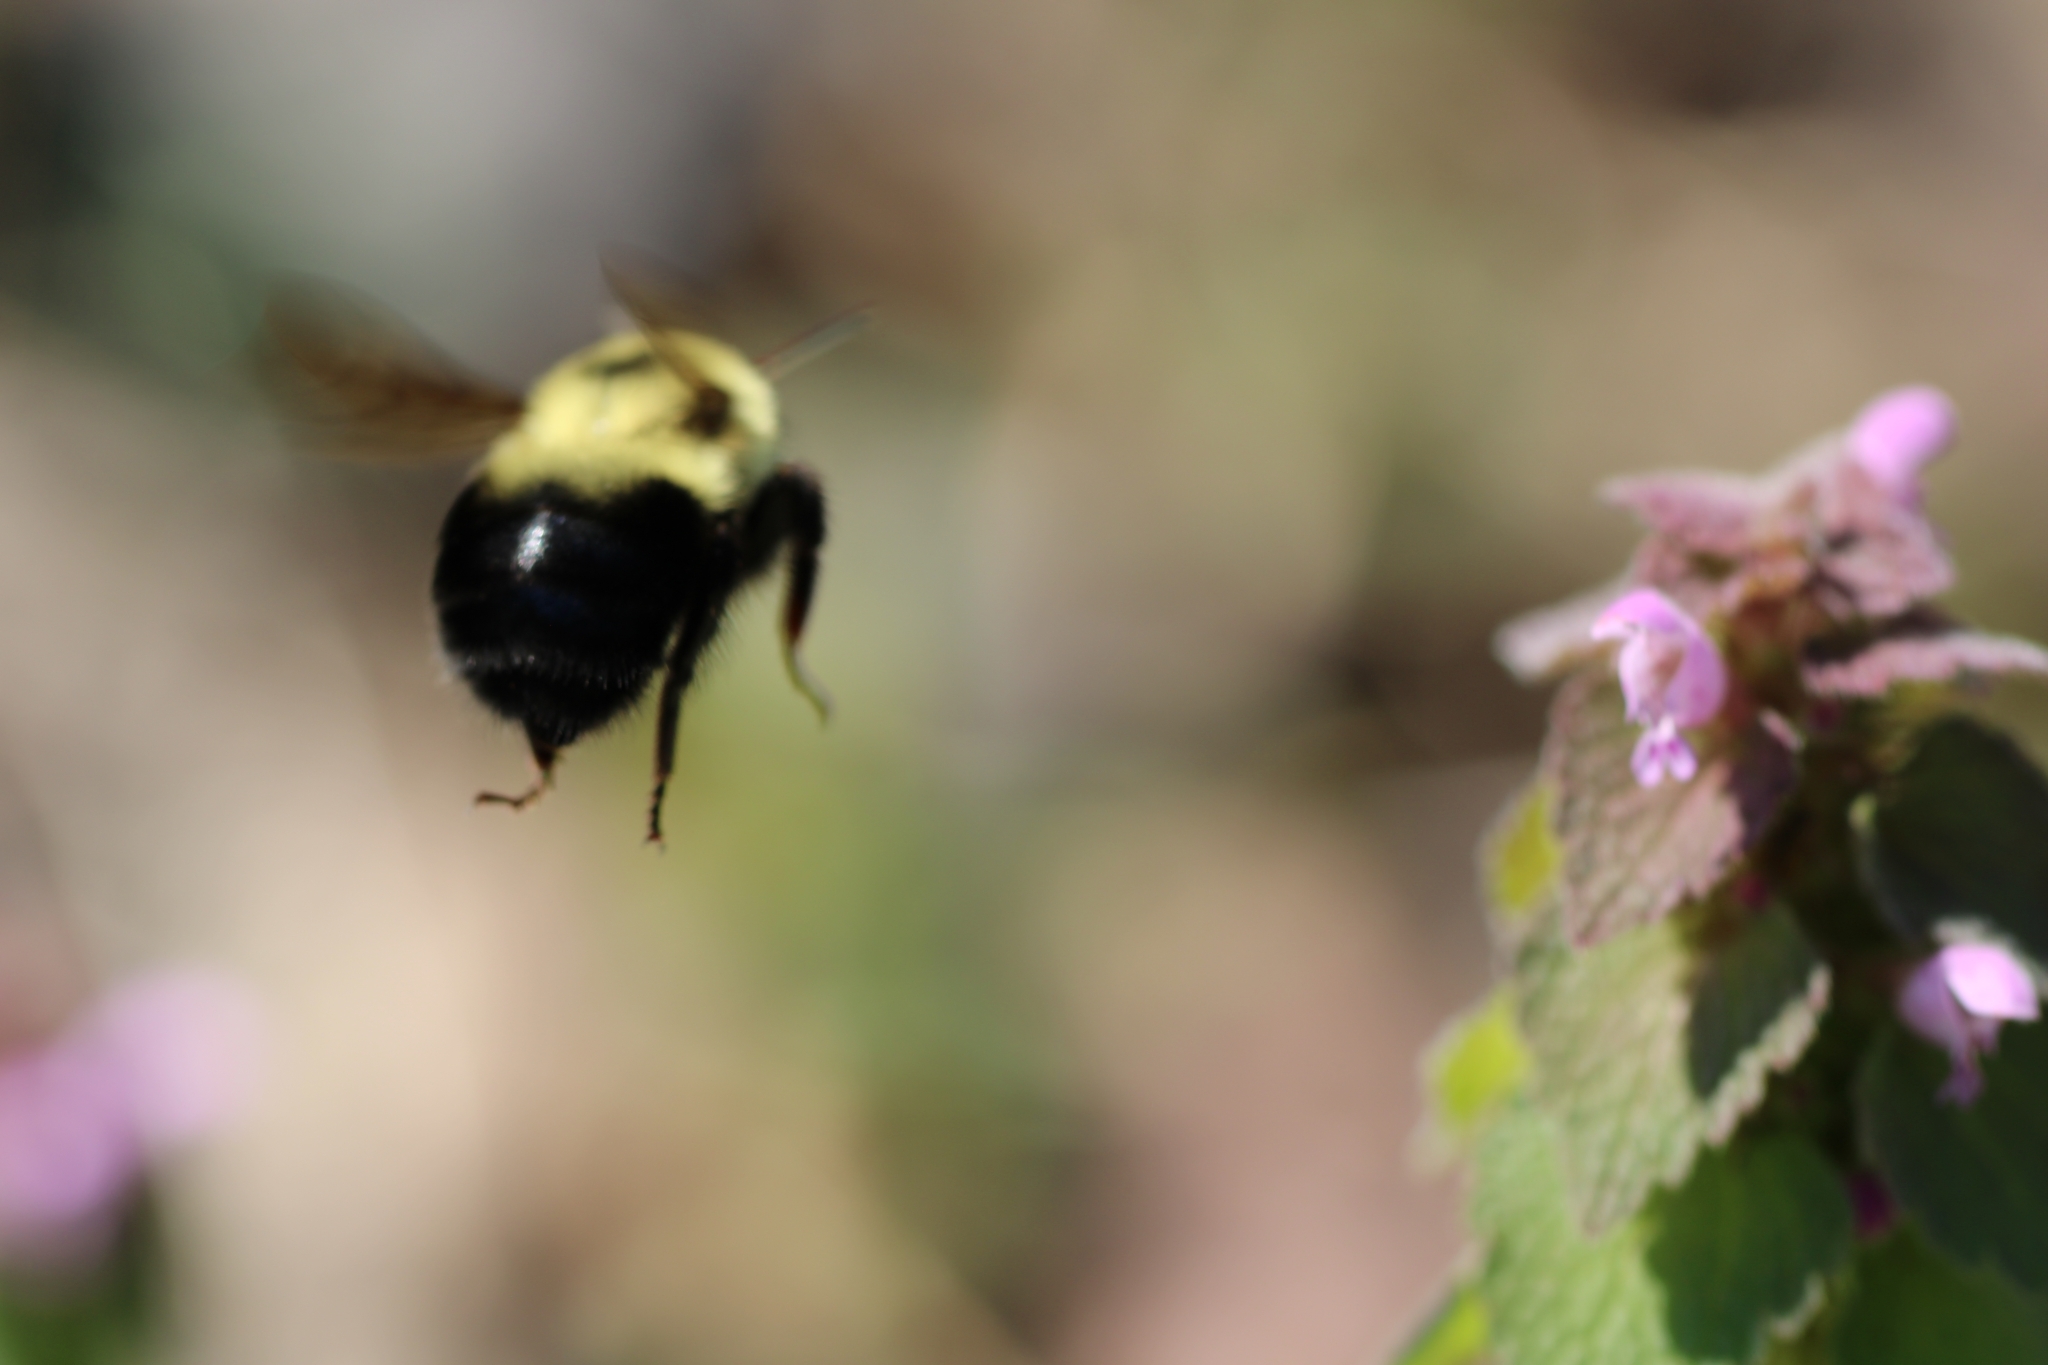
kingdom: Animalia
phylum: Arthropoda
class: Insecta
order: Hymenoptera
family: Apidae
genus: Bombus
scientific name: Bombus bimaculatus
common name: Two-spotted bumble bee
